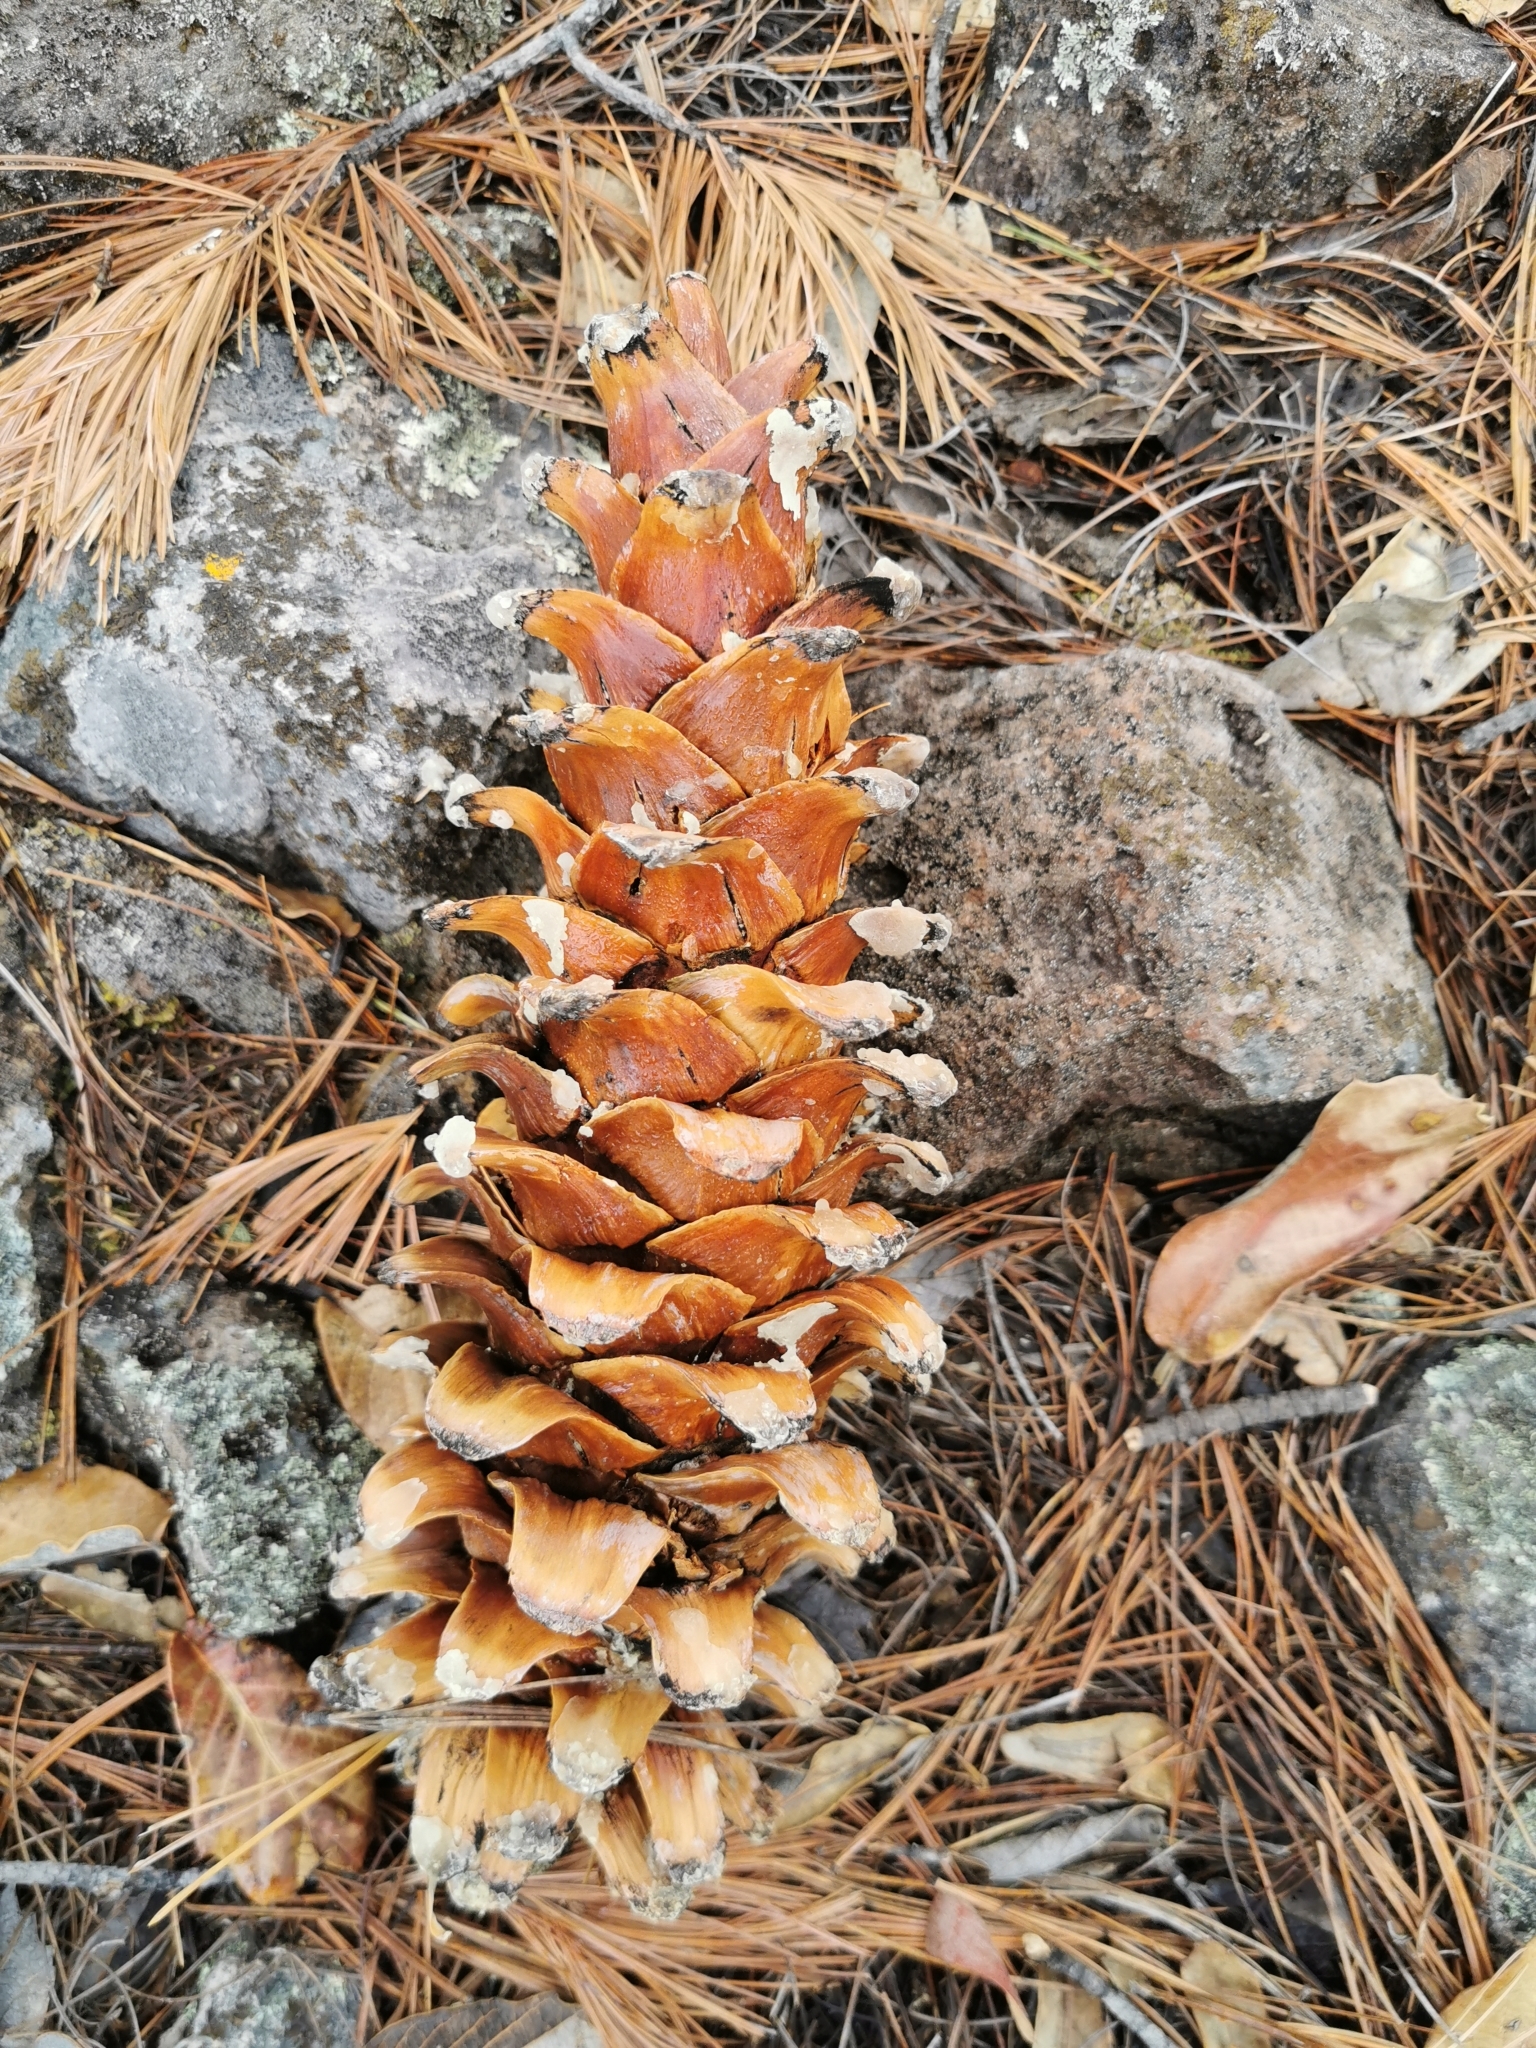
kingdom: Plantae
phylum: Tracheophyta
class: Pinopsida
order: Pinales
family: Pinaceae
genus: Pinus
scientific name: Pinus strobiformis
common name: Southwestern white pine
